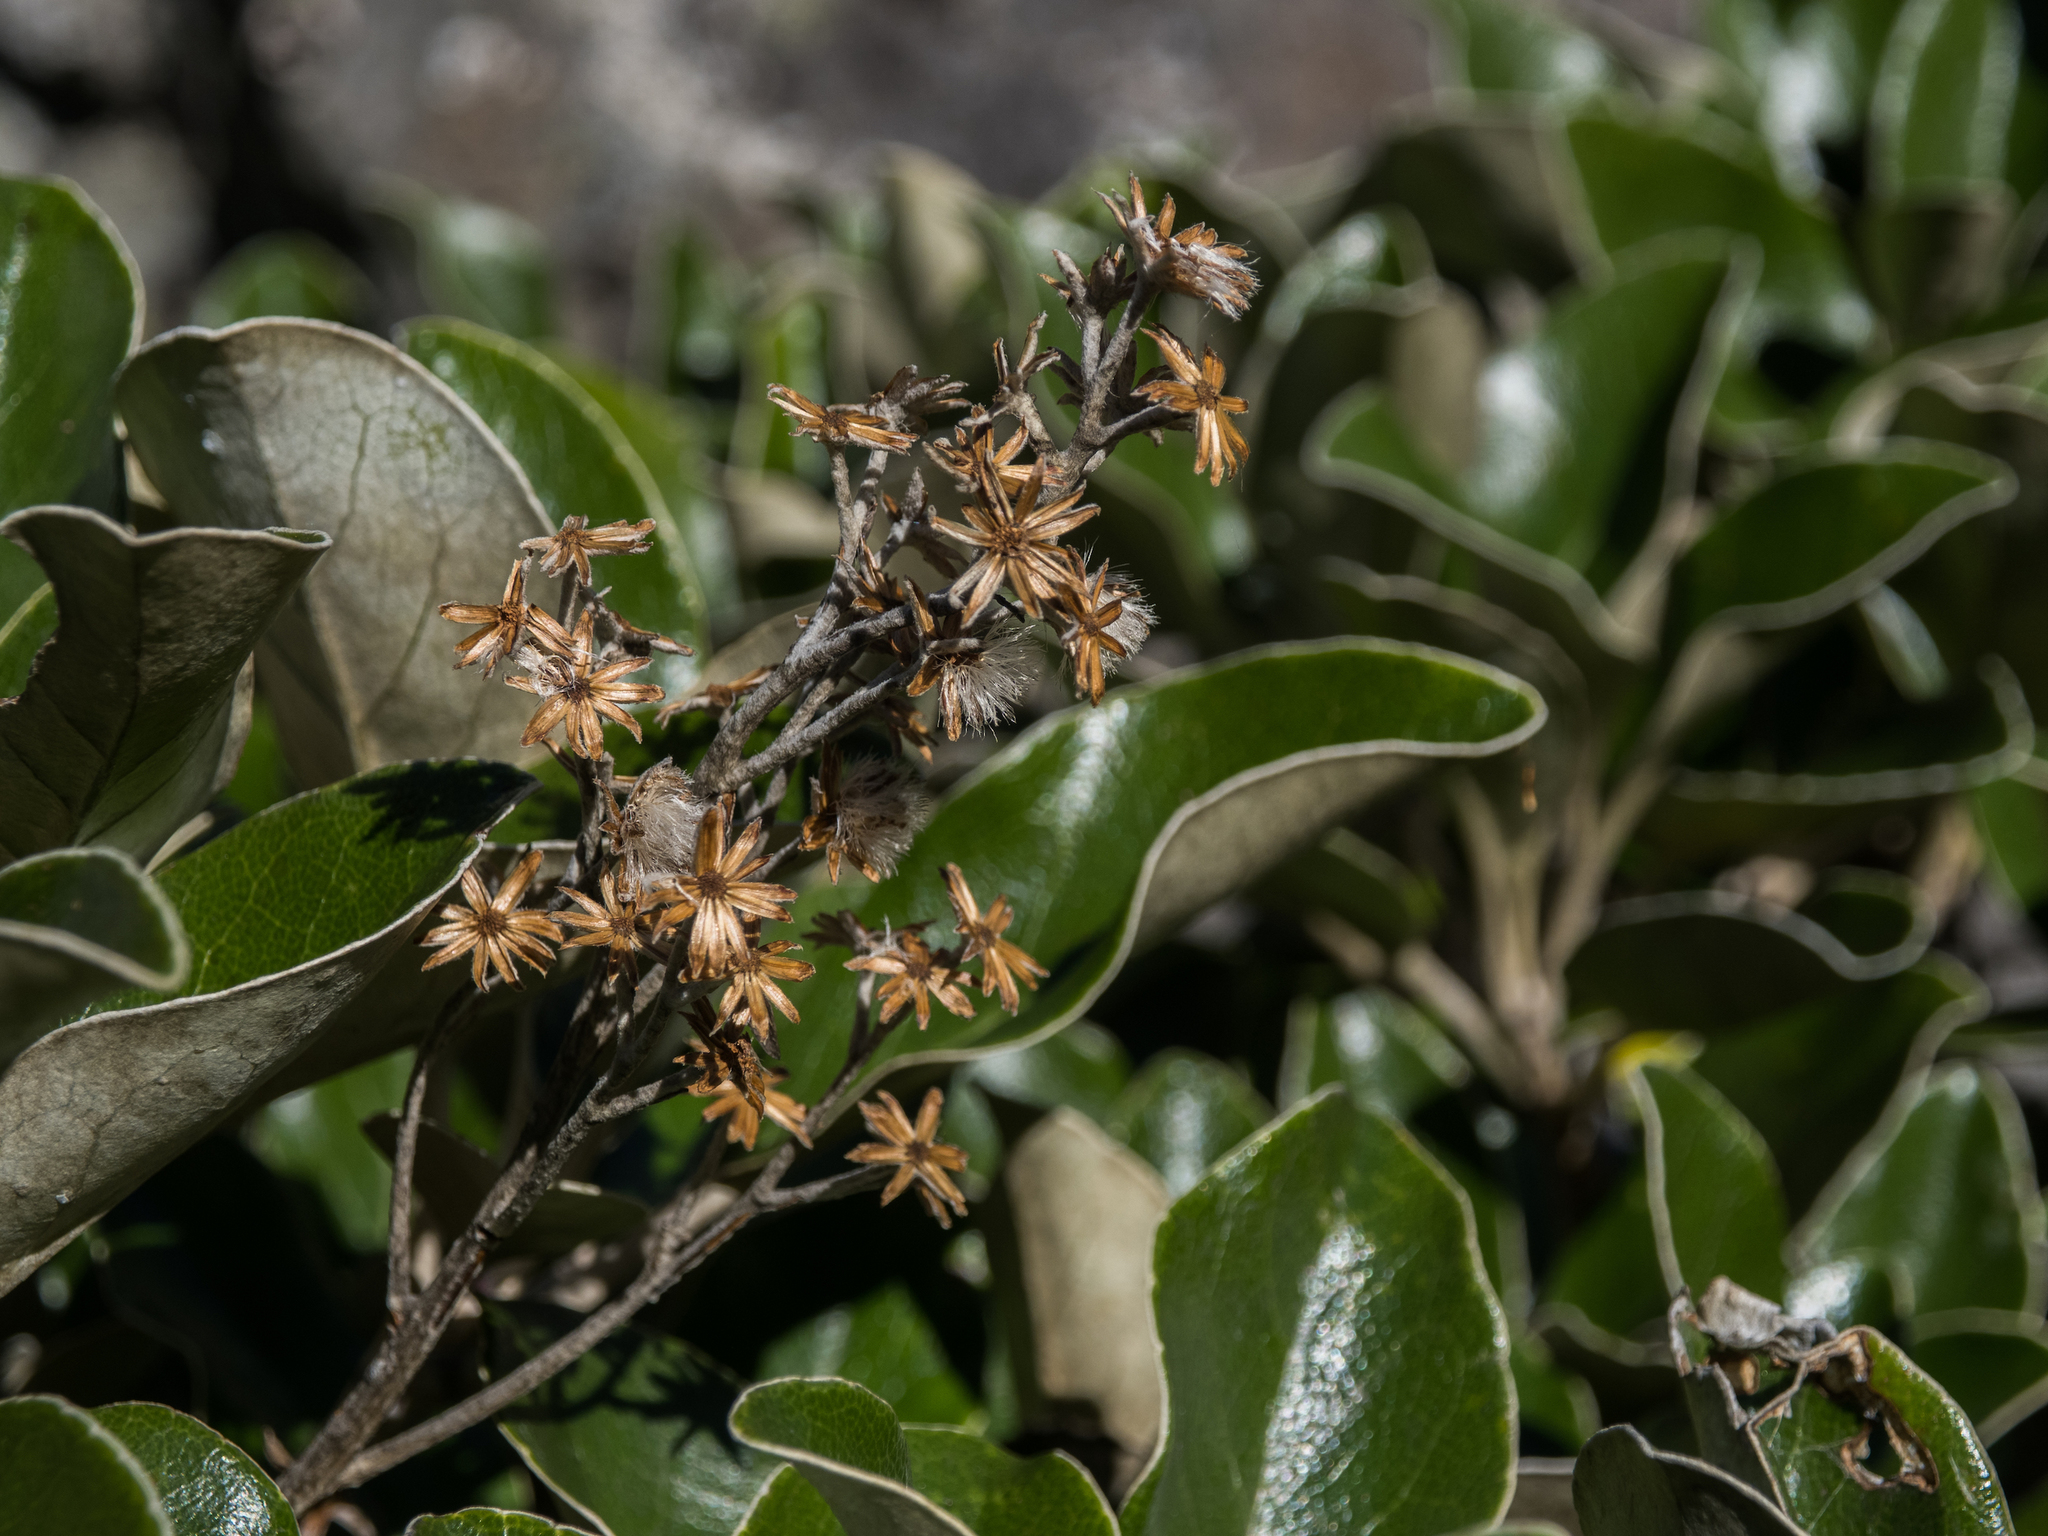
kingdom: Plantae
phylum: Tracheophyta
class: Magnoliopsida
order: Asterales
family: Asteraceae
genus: Brachyglottis
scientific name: Brachyglottis elaeagnifolia
